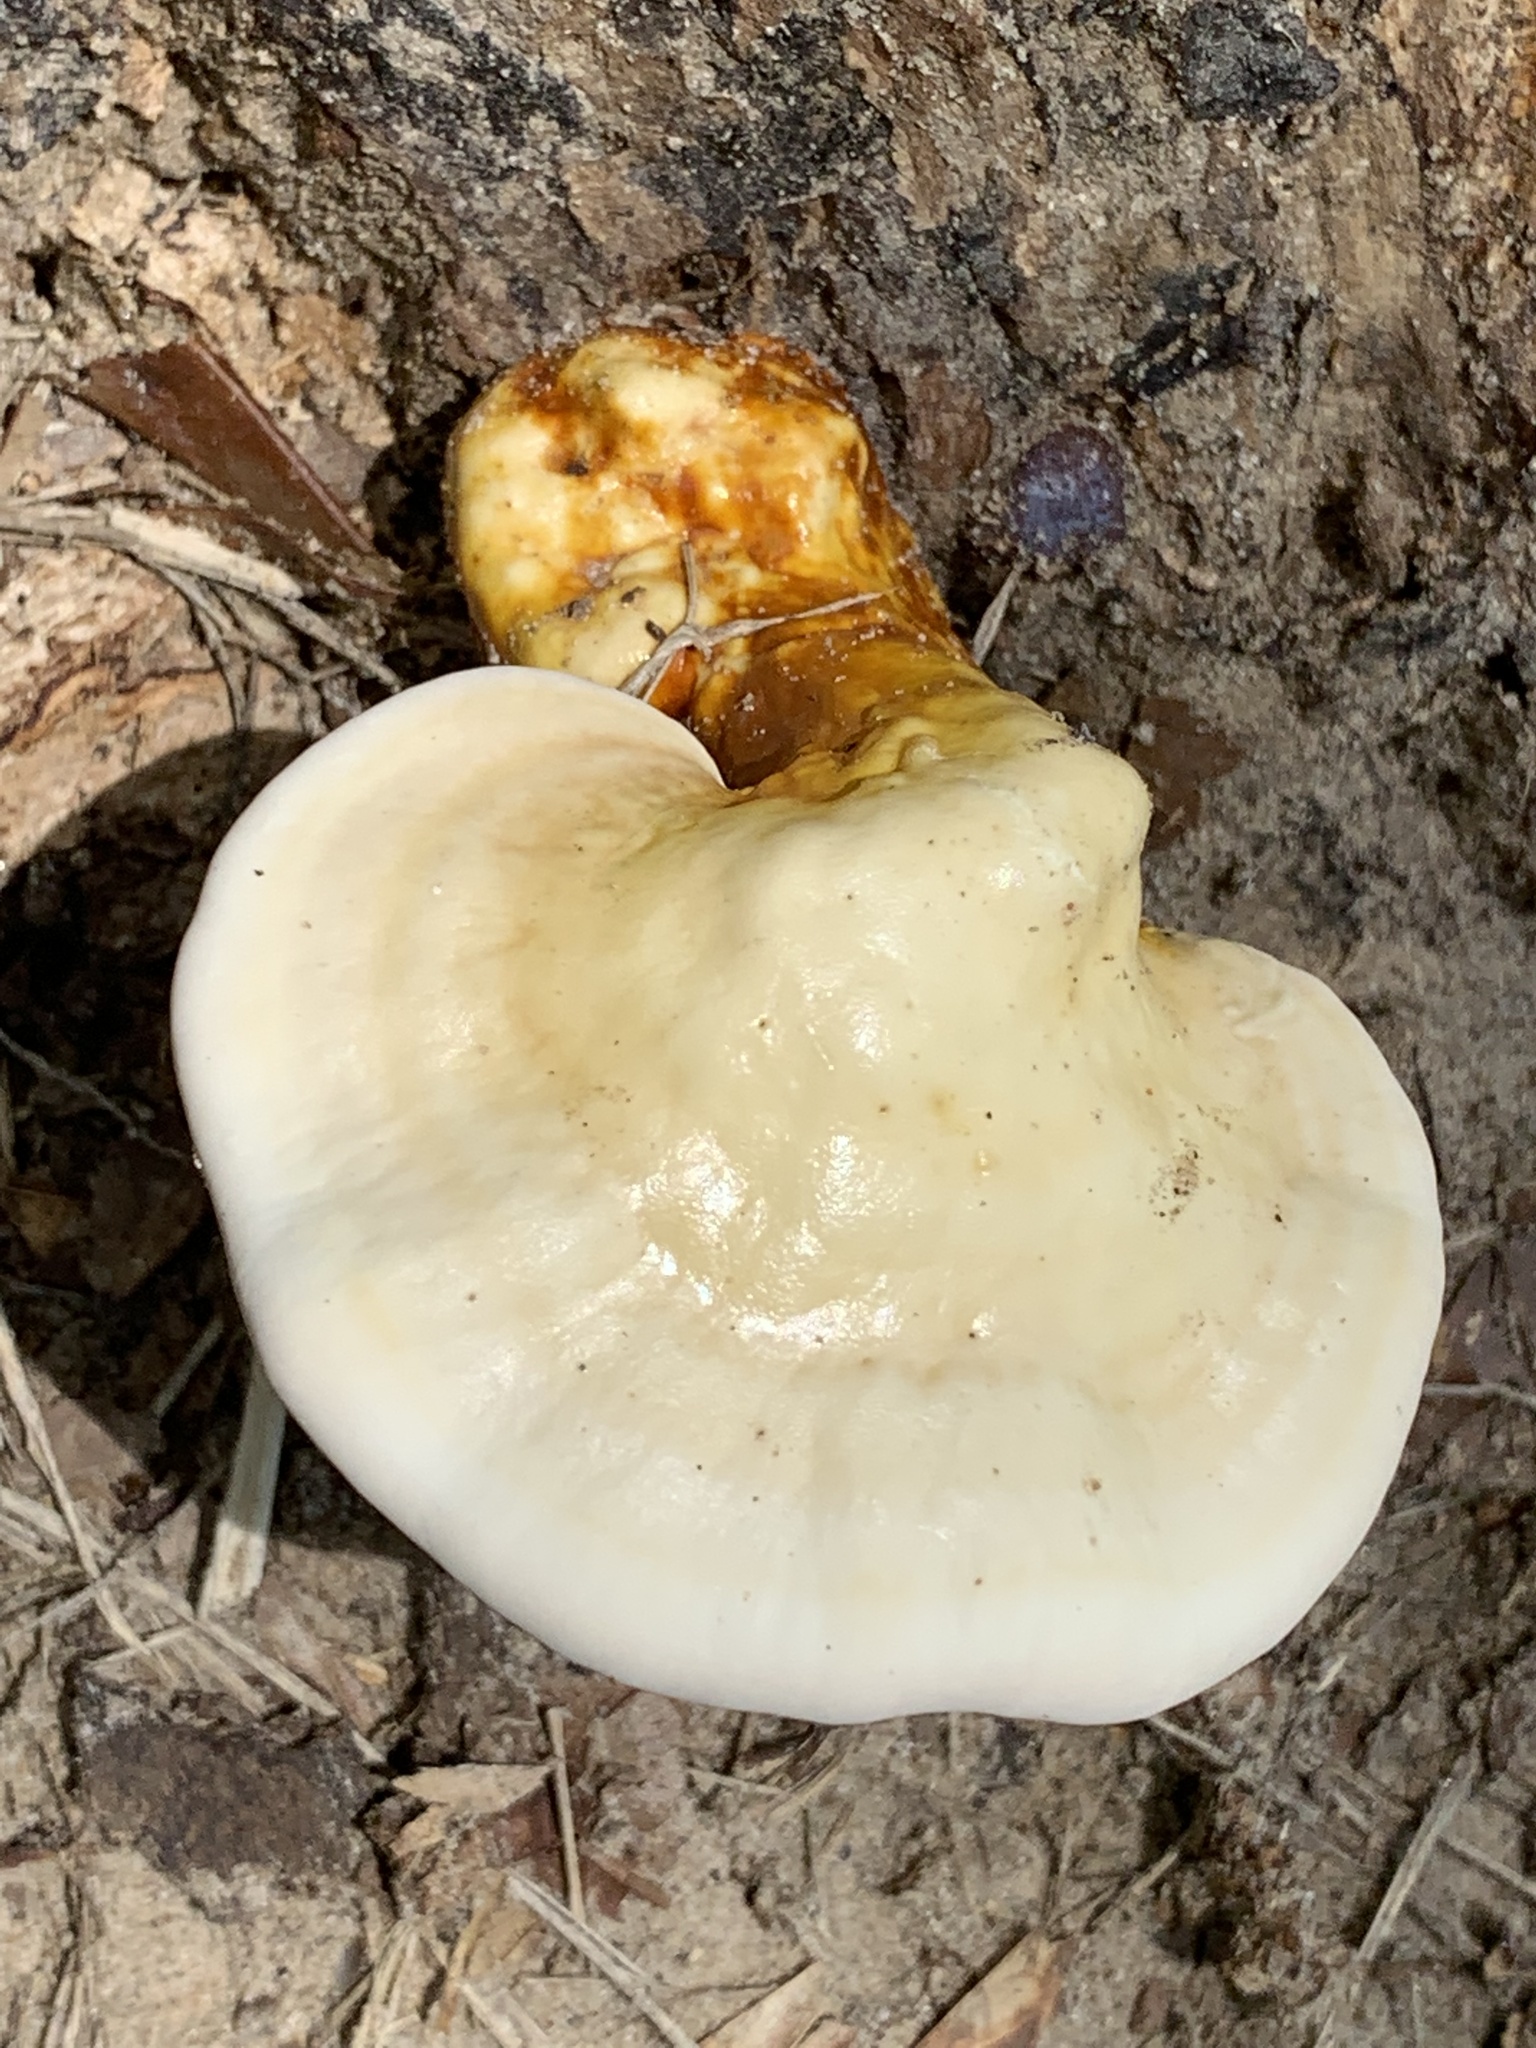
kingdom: Fungi
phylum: Basidiomycota
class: Agaricomycetes
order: Polyporales
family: Polyporaceae
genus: Ganoderma
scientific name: Ganoderma curtisii
